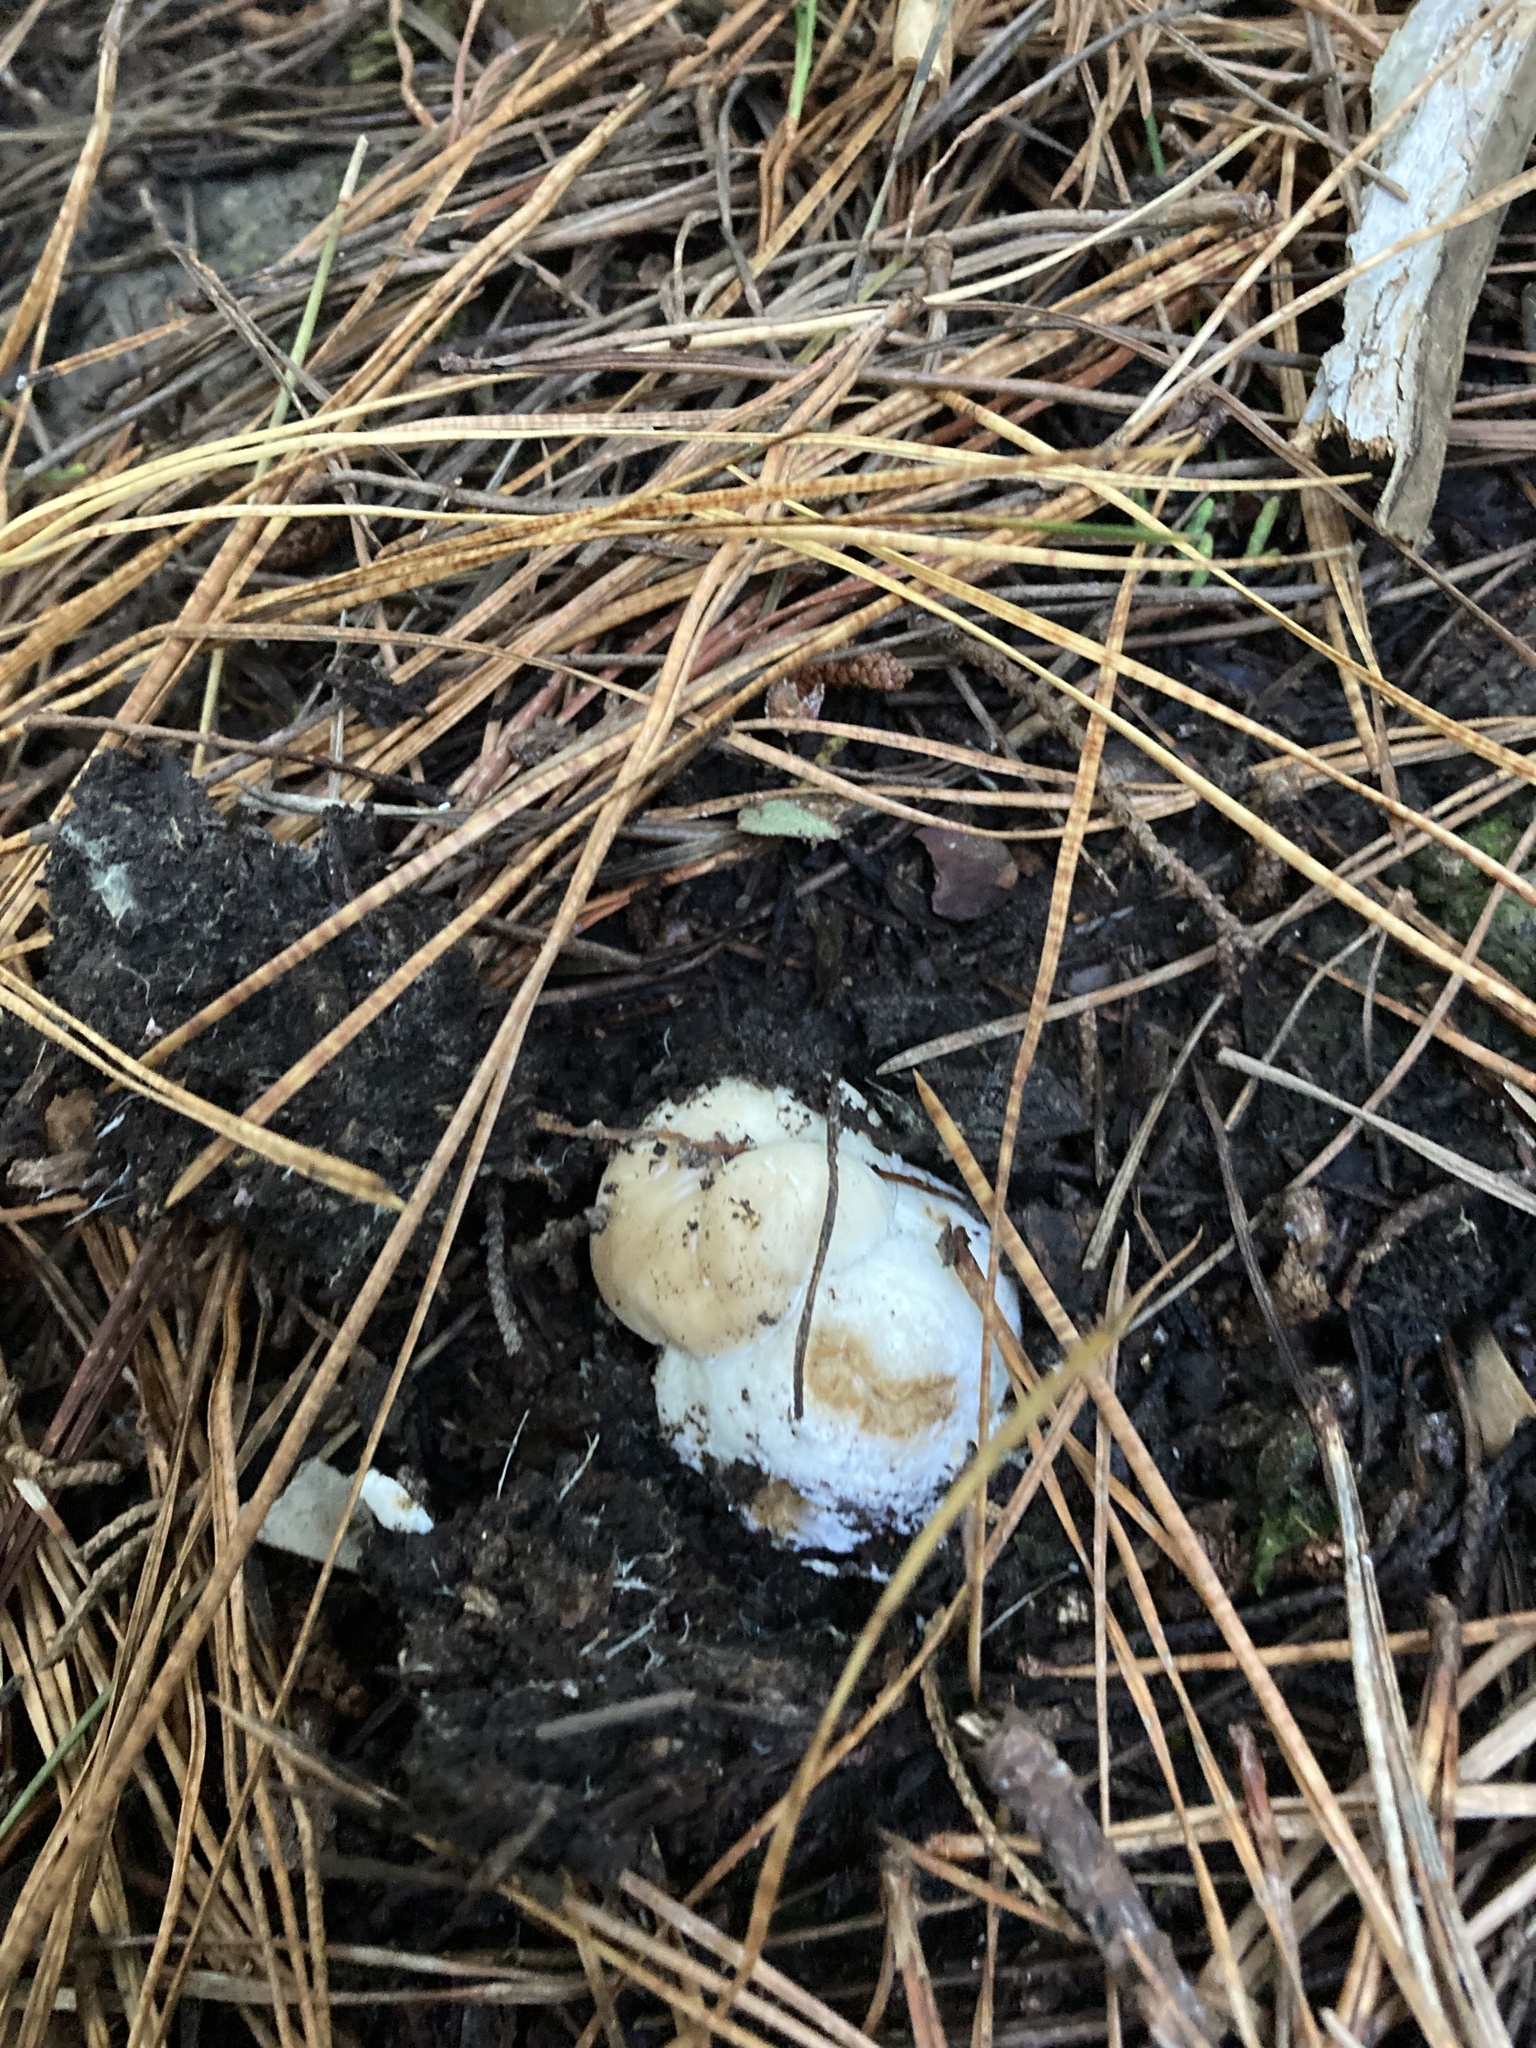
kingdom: Fungi
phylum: Basidiomycota
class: Agaricomycetes
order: Boletales
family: Boletaceae
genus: Boletus
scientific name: Boletus edulis
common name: Cep
